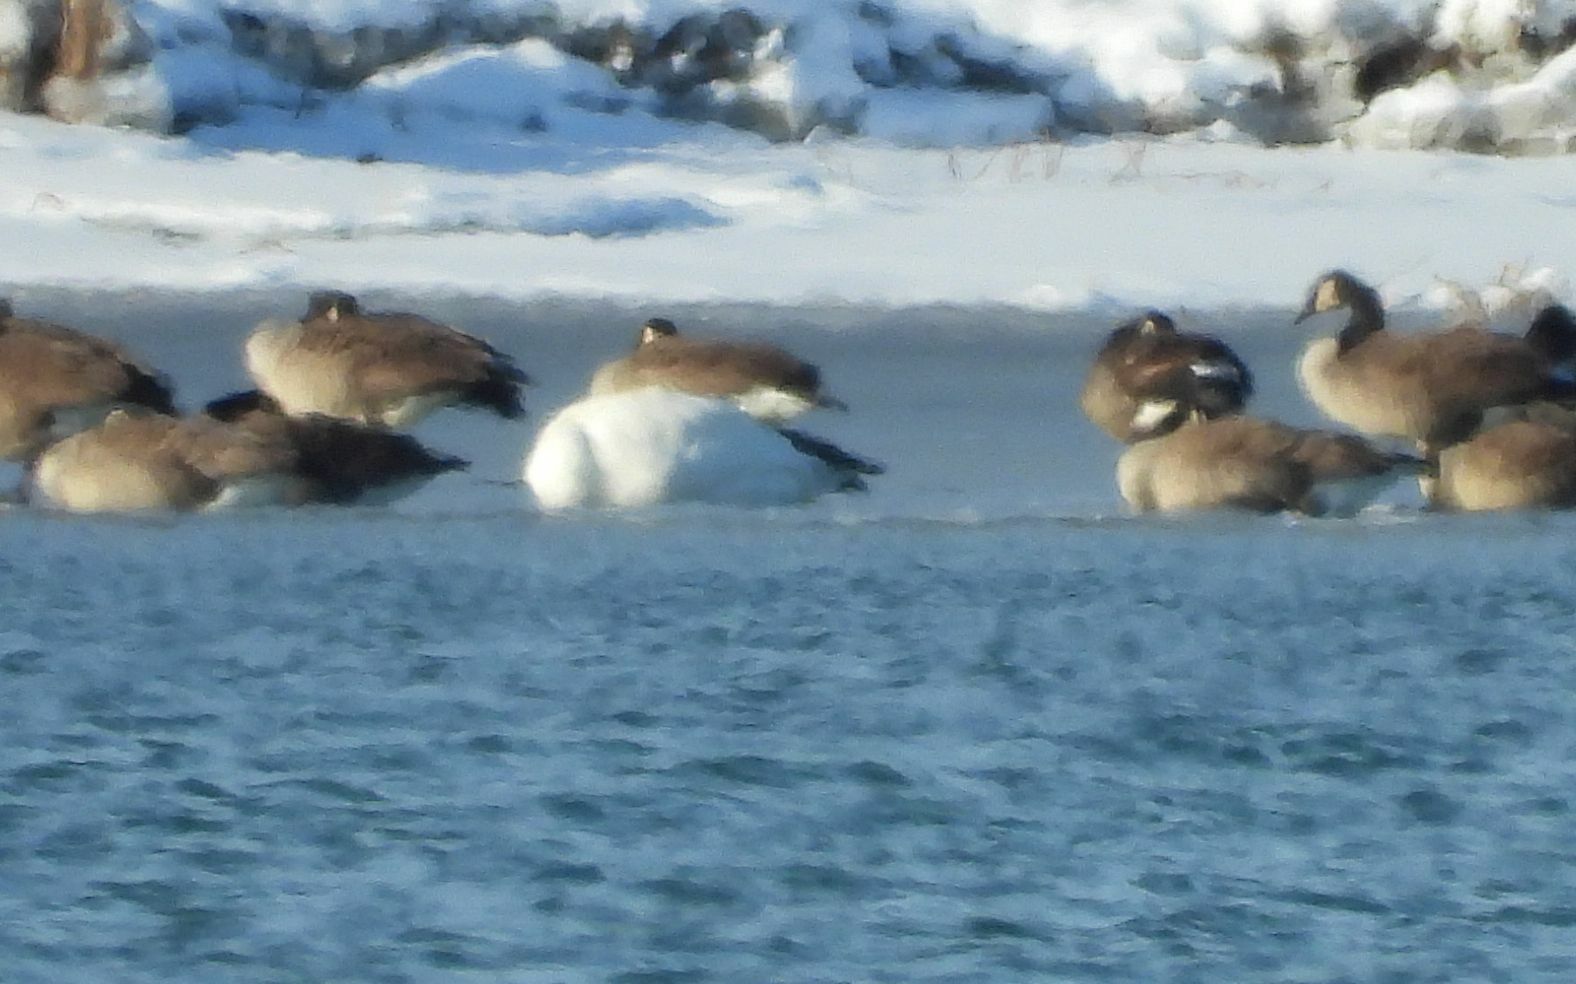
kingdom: Animalia
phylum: Chordata
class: Aves
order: Anseriformes
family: Anatidae
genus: Anser
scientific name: Anser caerulescens
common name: Snow goose
